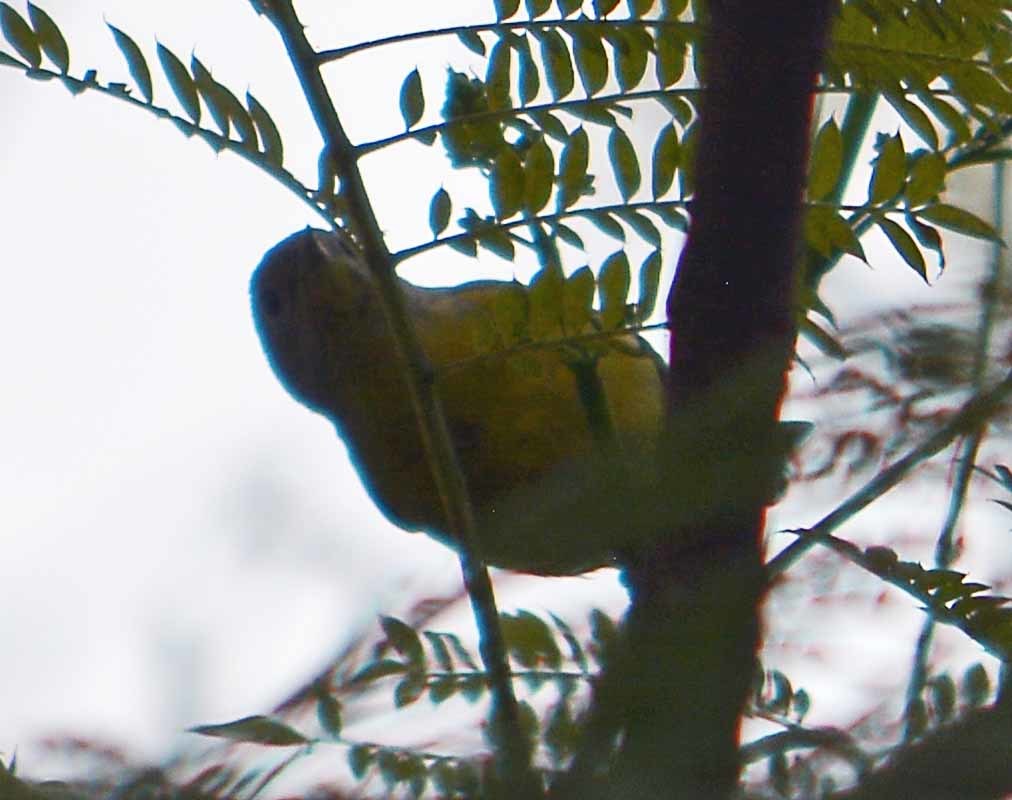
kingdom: Animalia
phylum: Chordata
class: Aves
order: Passeriformes
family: Parulidae
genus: Leiothlypis
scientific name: Leiothlypis ruficapilla
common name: Nashville warbler
